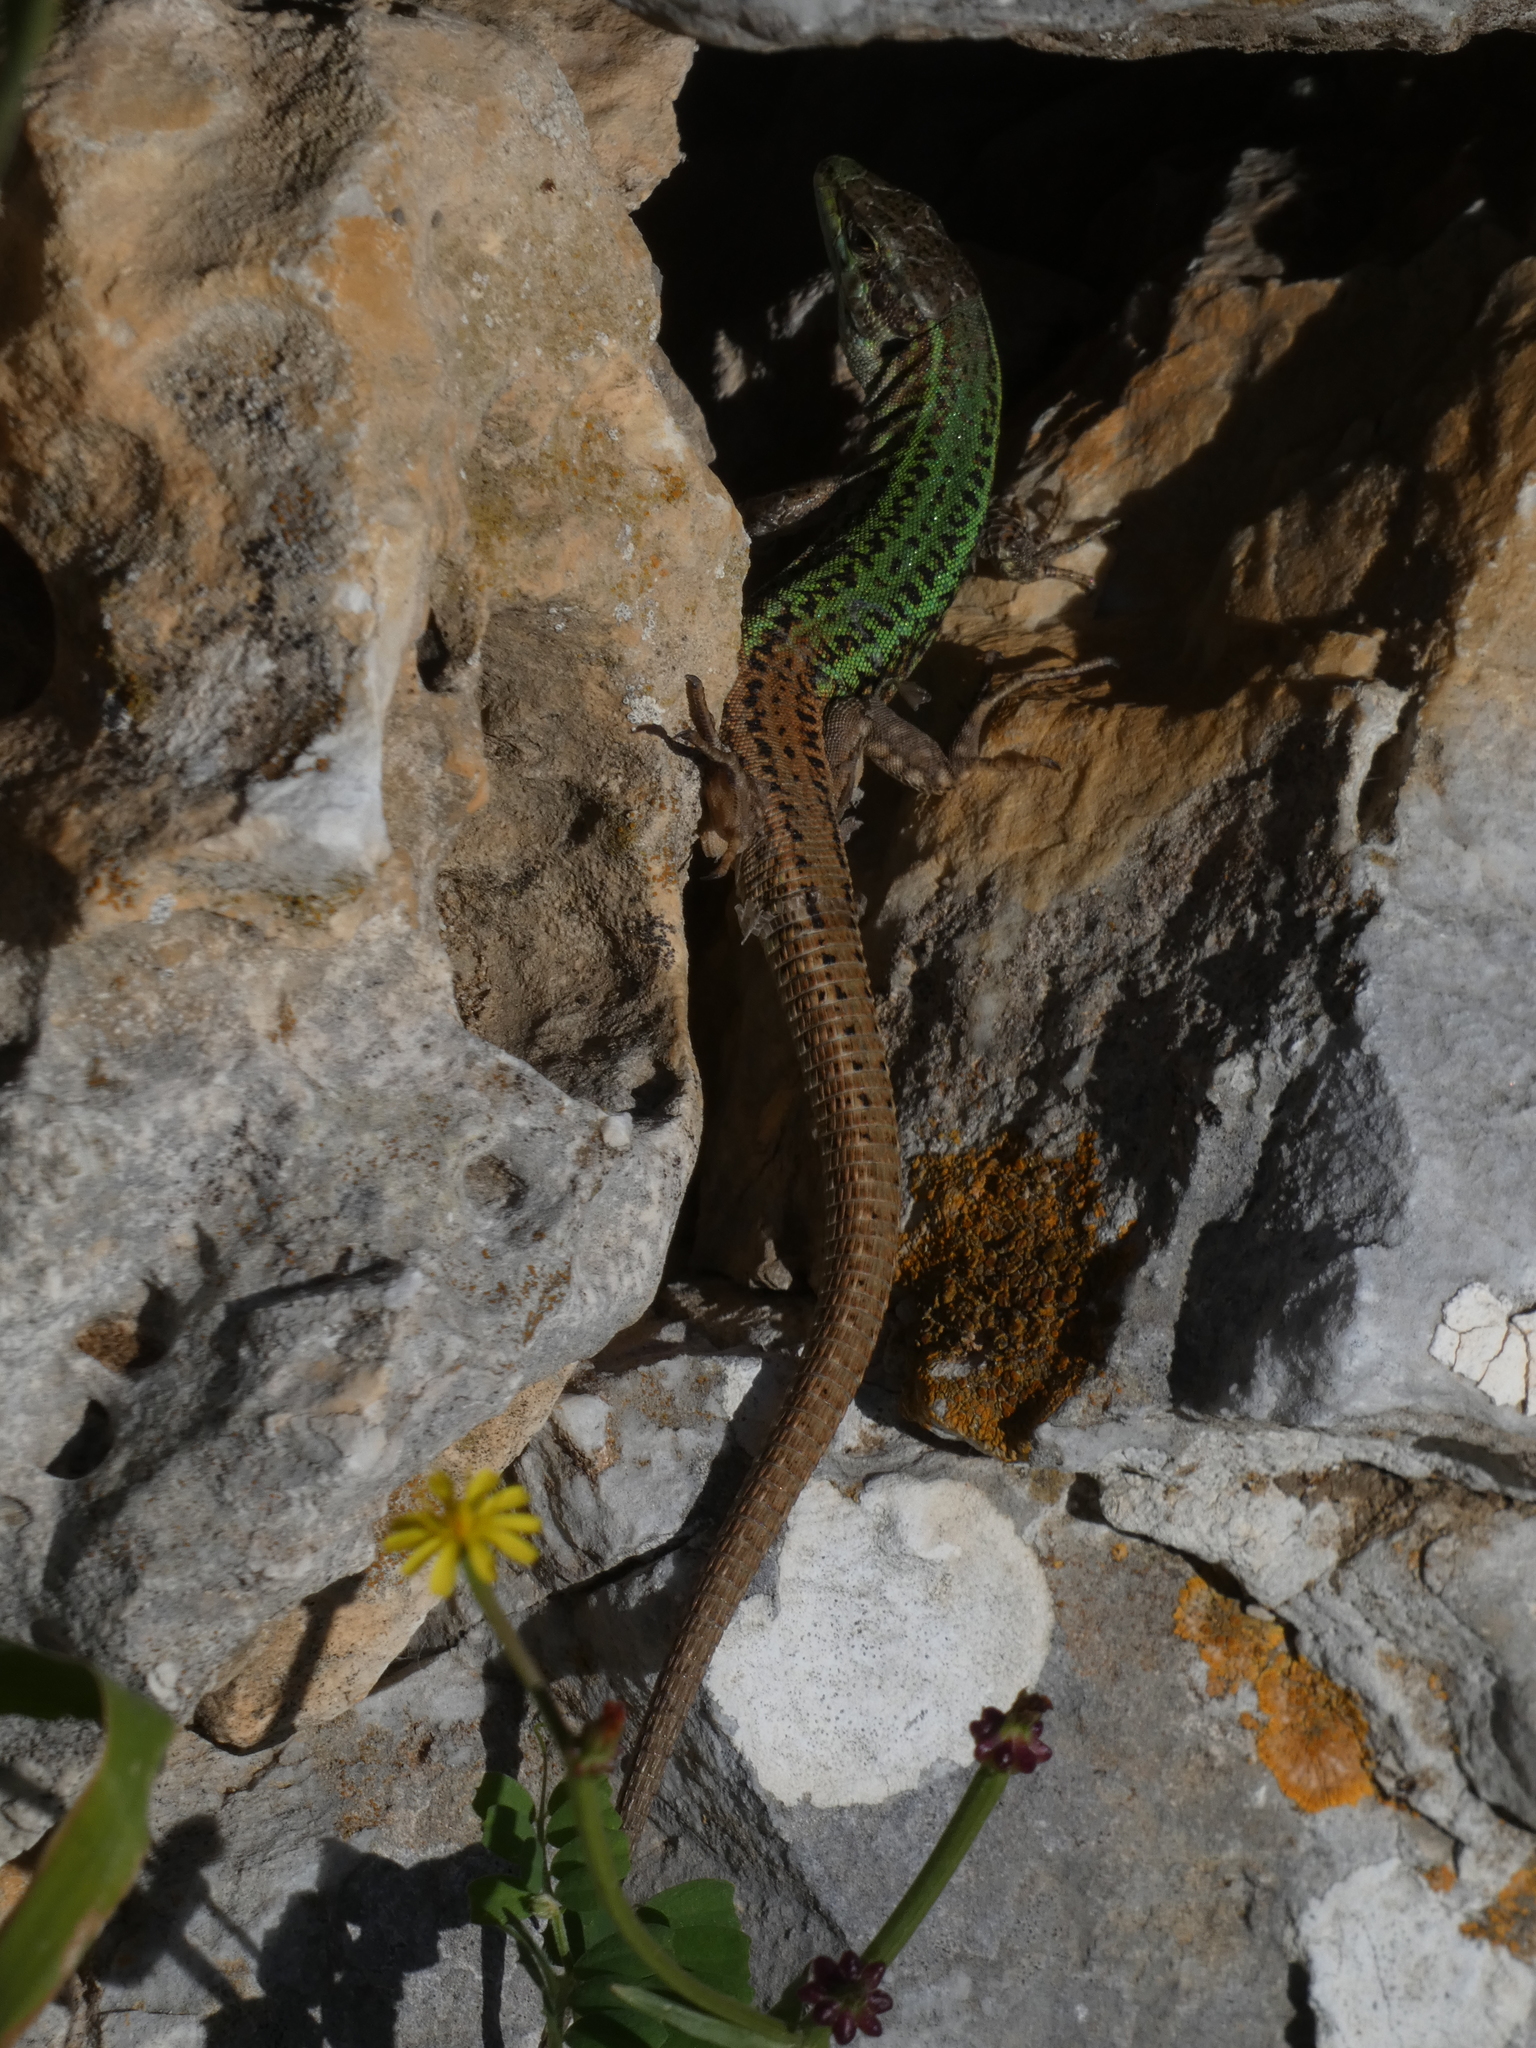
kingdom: Animalia
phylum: Chordata
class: Squamata
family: Lacertidae
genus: Podarcis
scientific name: Podarcis erhardii
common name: Erhard's wall lizard
